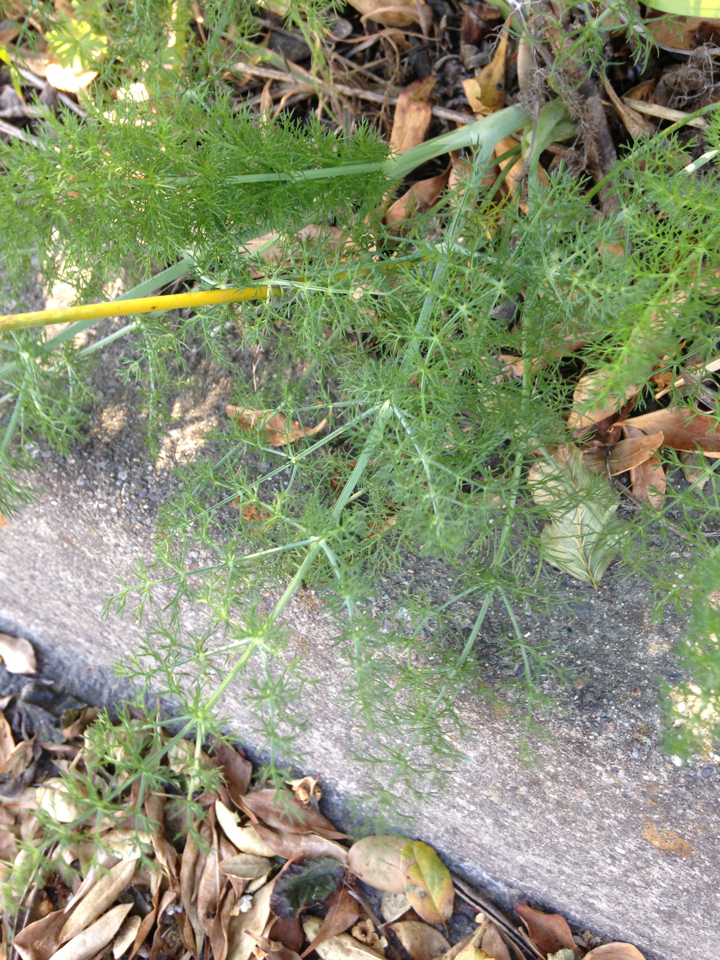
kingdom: Plantae
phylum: Tracheophyta
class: Magnoliopsida
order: Apiales
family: Apiaceae
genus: Foeniculum
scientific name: Foeniculum vulgare
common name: Fennel
